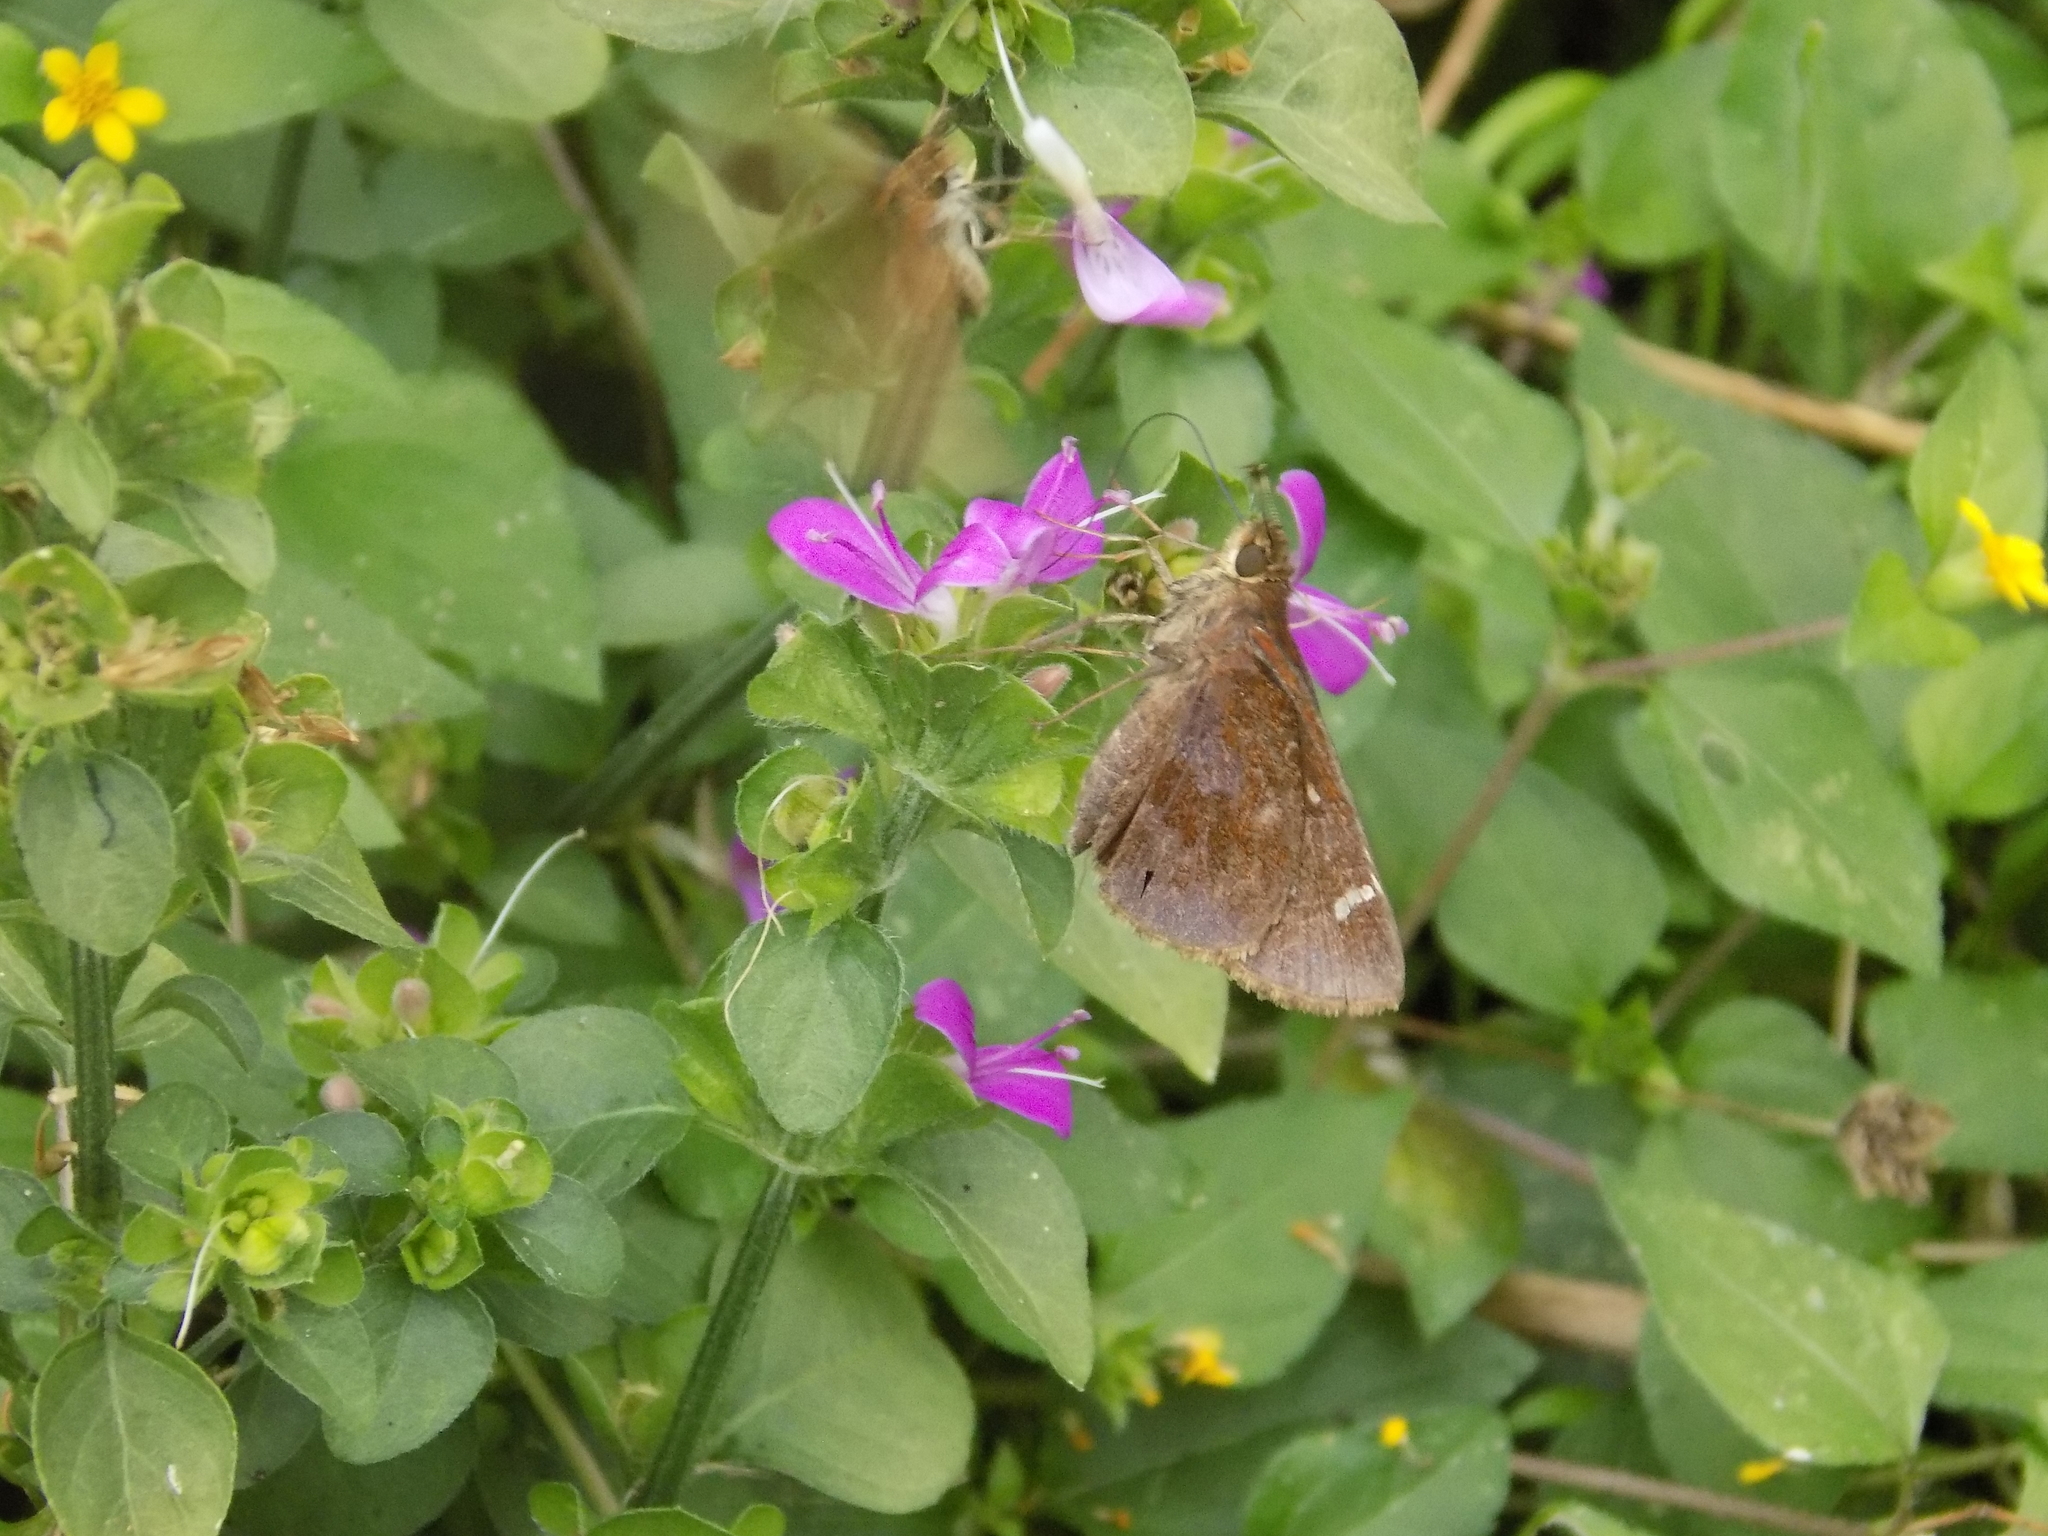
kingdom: Animalia
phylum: Arthropoda
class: Insecta
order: Lepidoptera
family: Hesperiidae
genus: Lerema
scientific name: Lerema accius
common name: Clouded skipper
